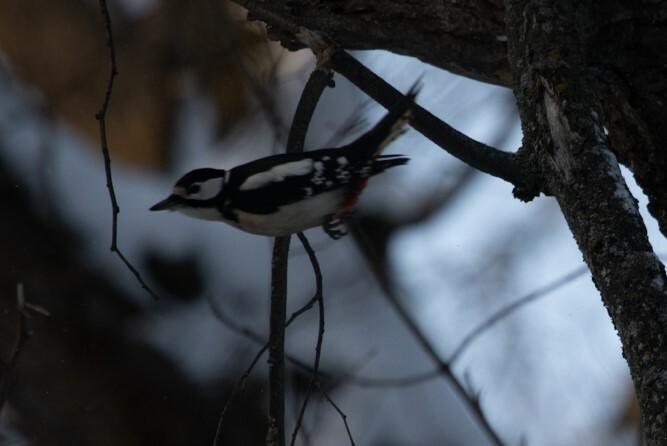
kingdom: Animalia
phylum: Chordata
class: Aves
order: Piciformes
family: Picidae
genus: Dendrocopos
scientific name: Dendrocopos major
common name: Great spotted woodpecker
